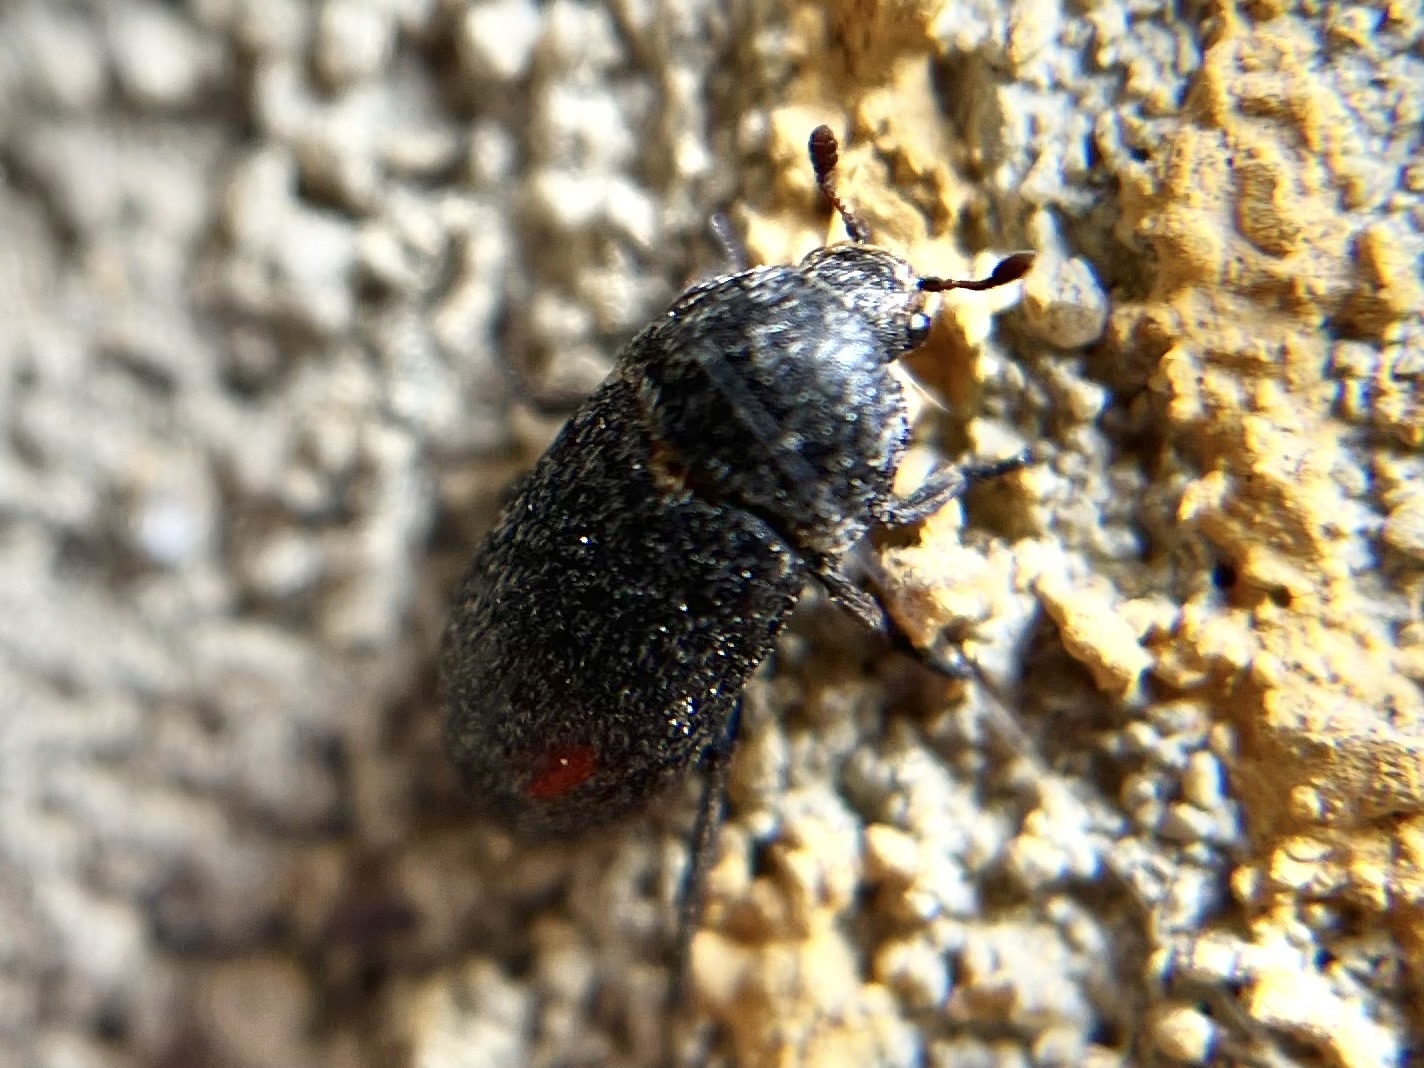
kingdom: Animalia
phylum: Arthropoda
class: Insecta
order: Coleoptera
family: Dermestidae
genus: Dermestes
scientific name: Dermestes laniarius
